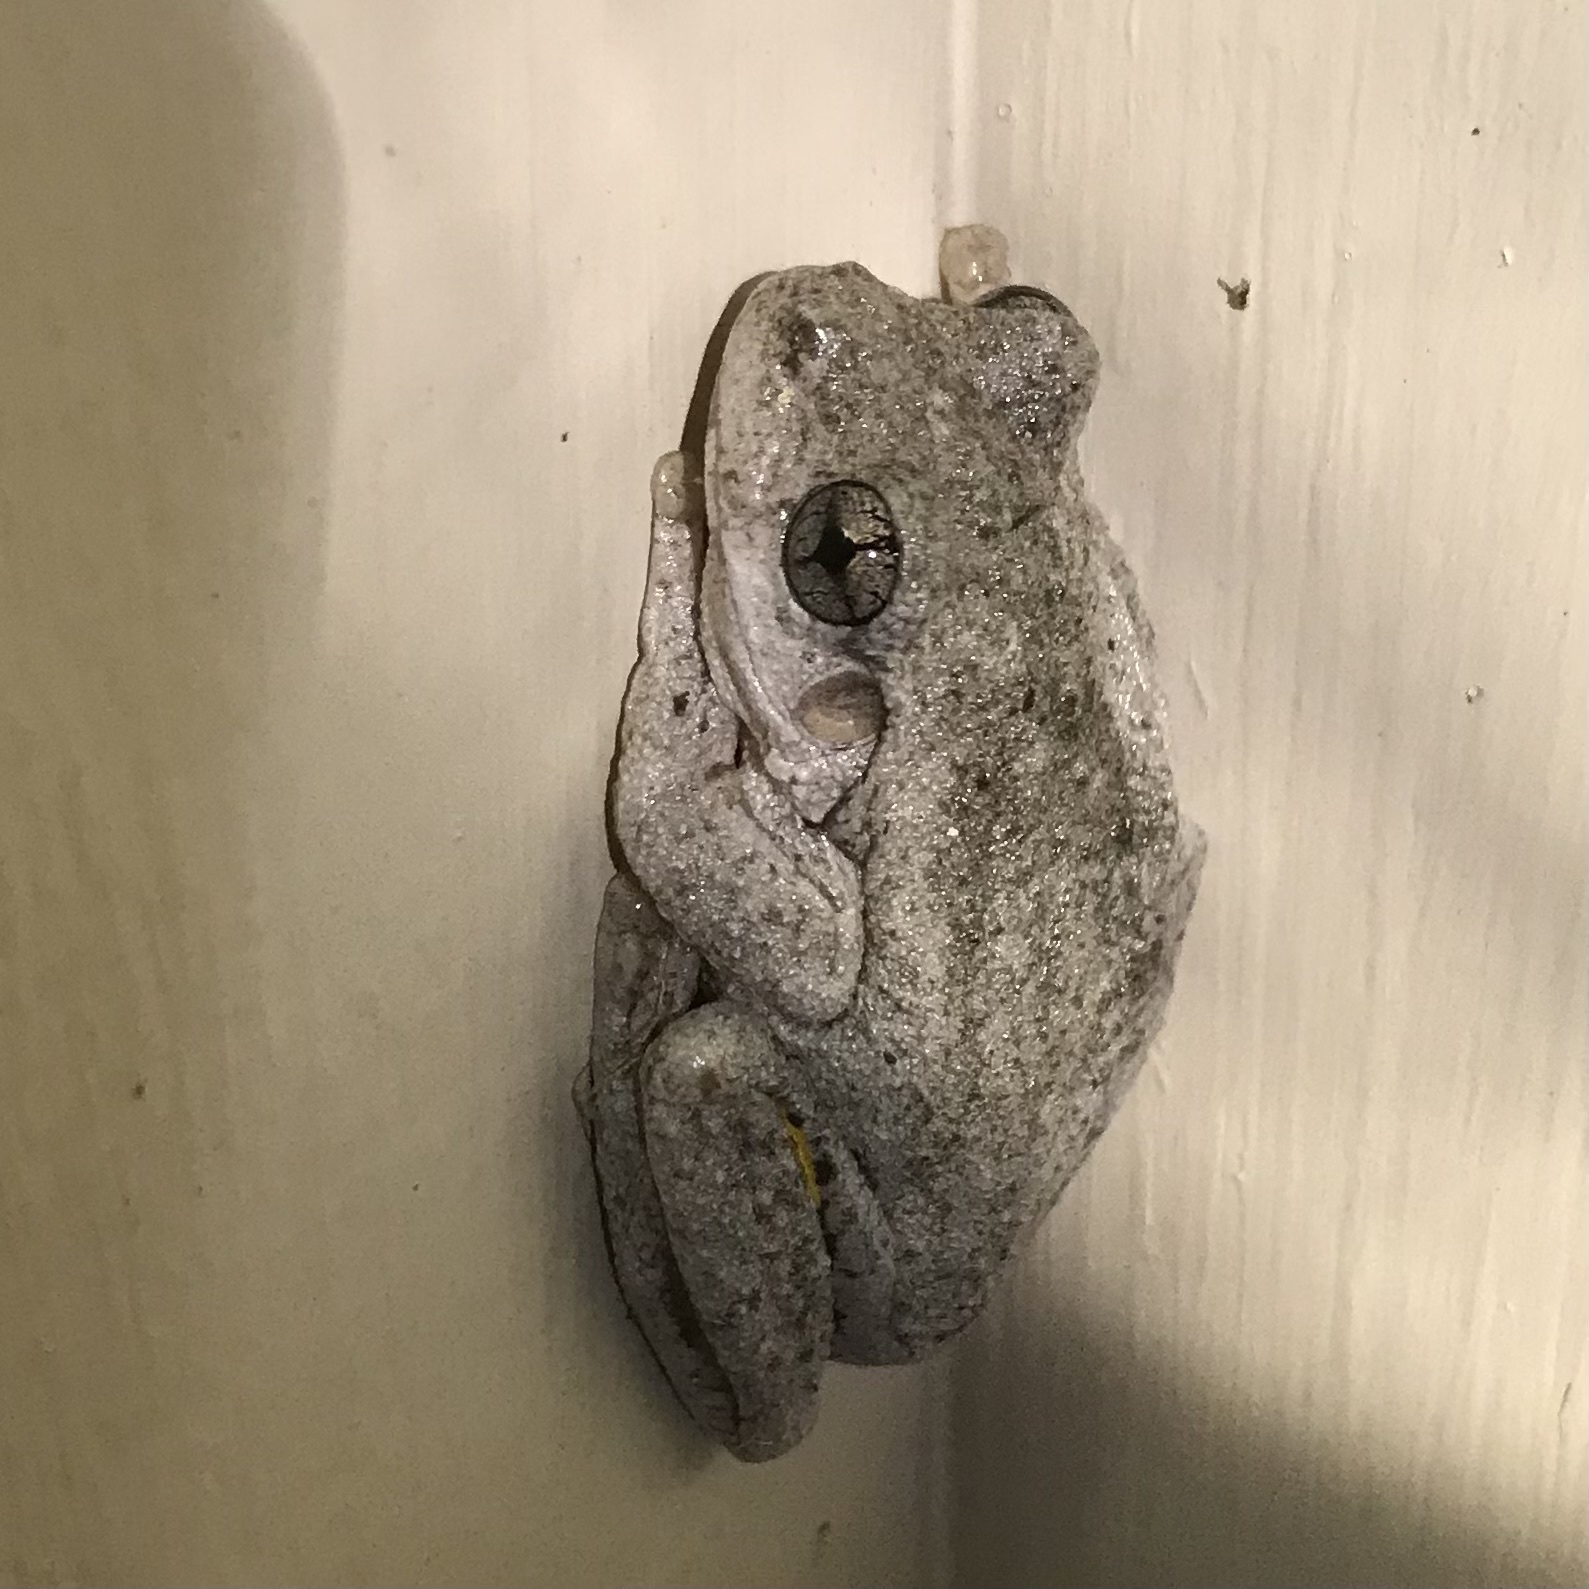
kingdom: Animalia
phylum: Chordata
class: Amphibia
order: Anura
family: Pelodryadidae
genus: Litoria
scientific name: Litoria peronii
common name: Emerald spotted treefrog
